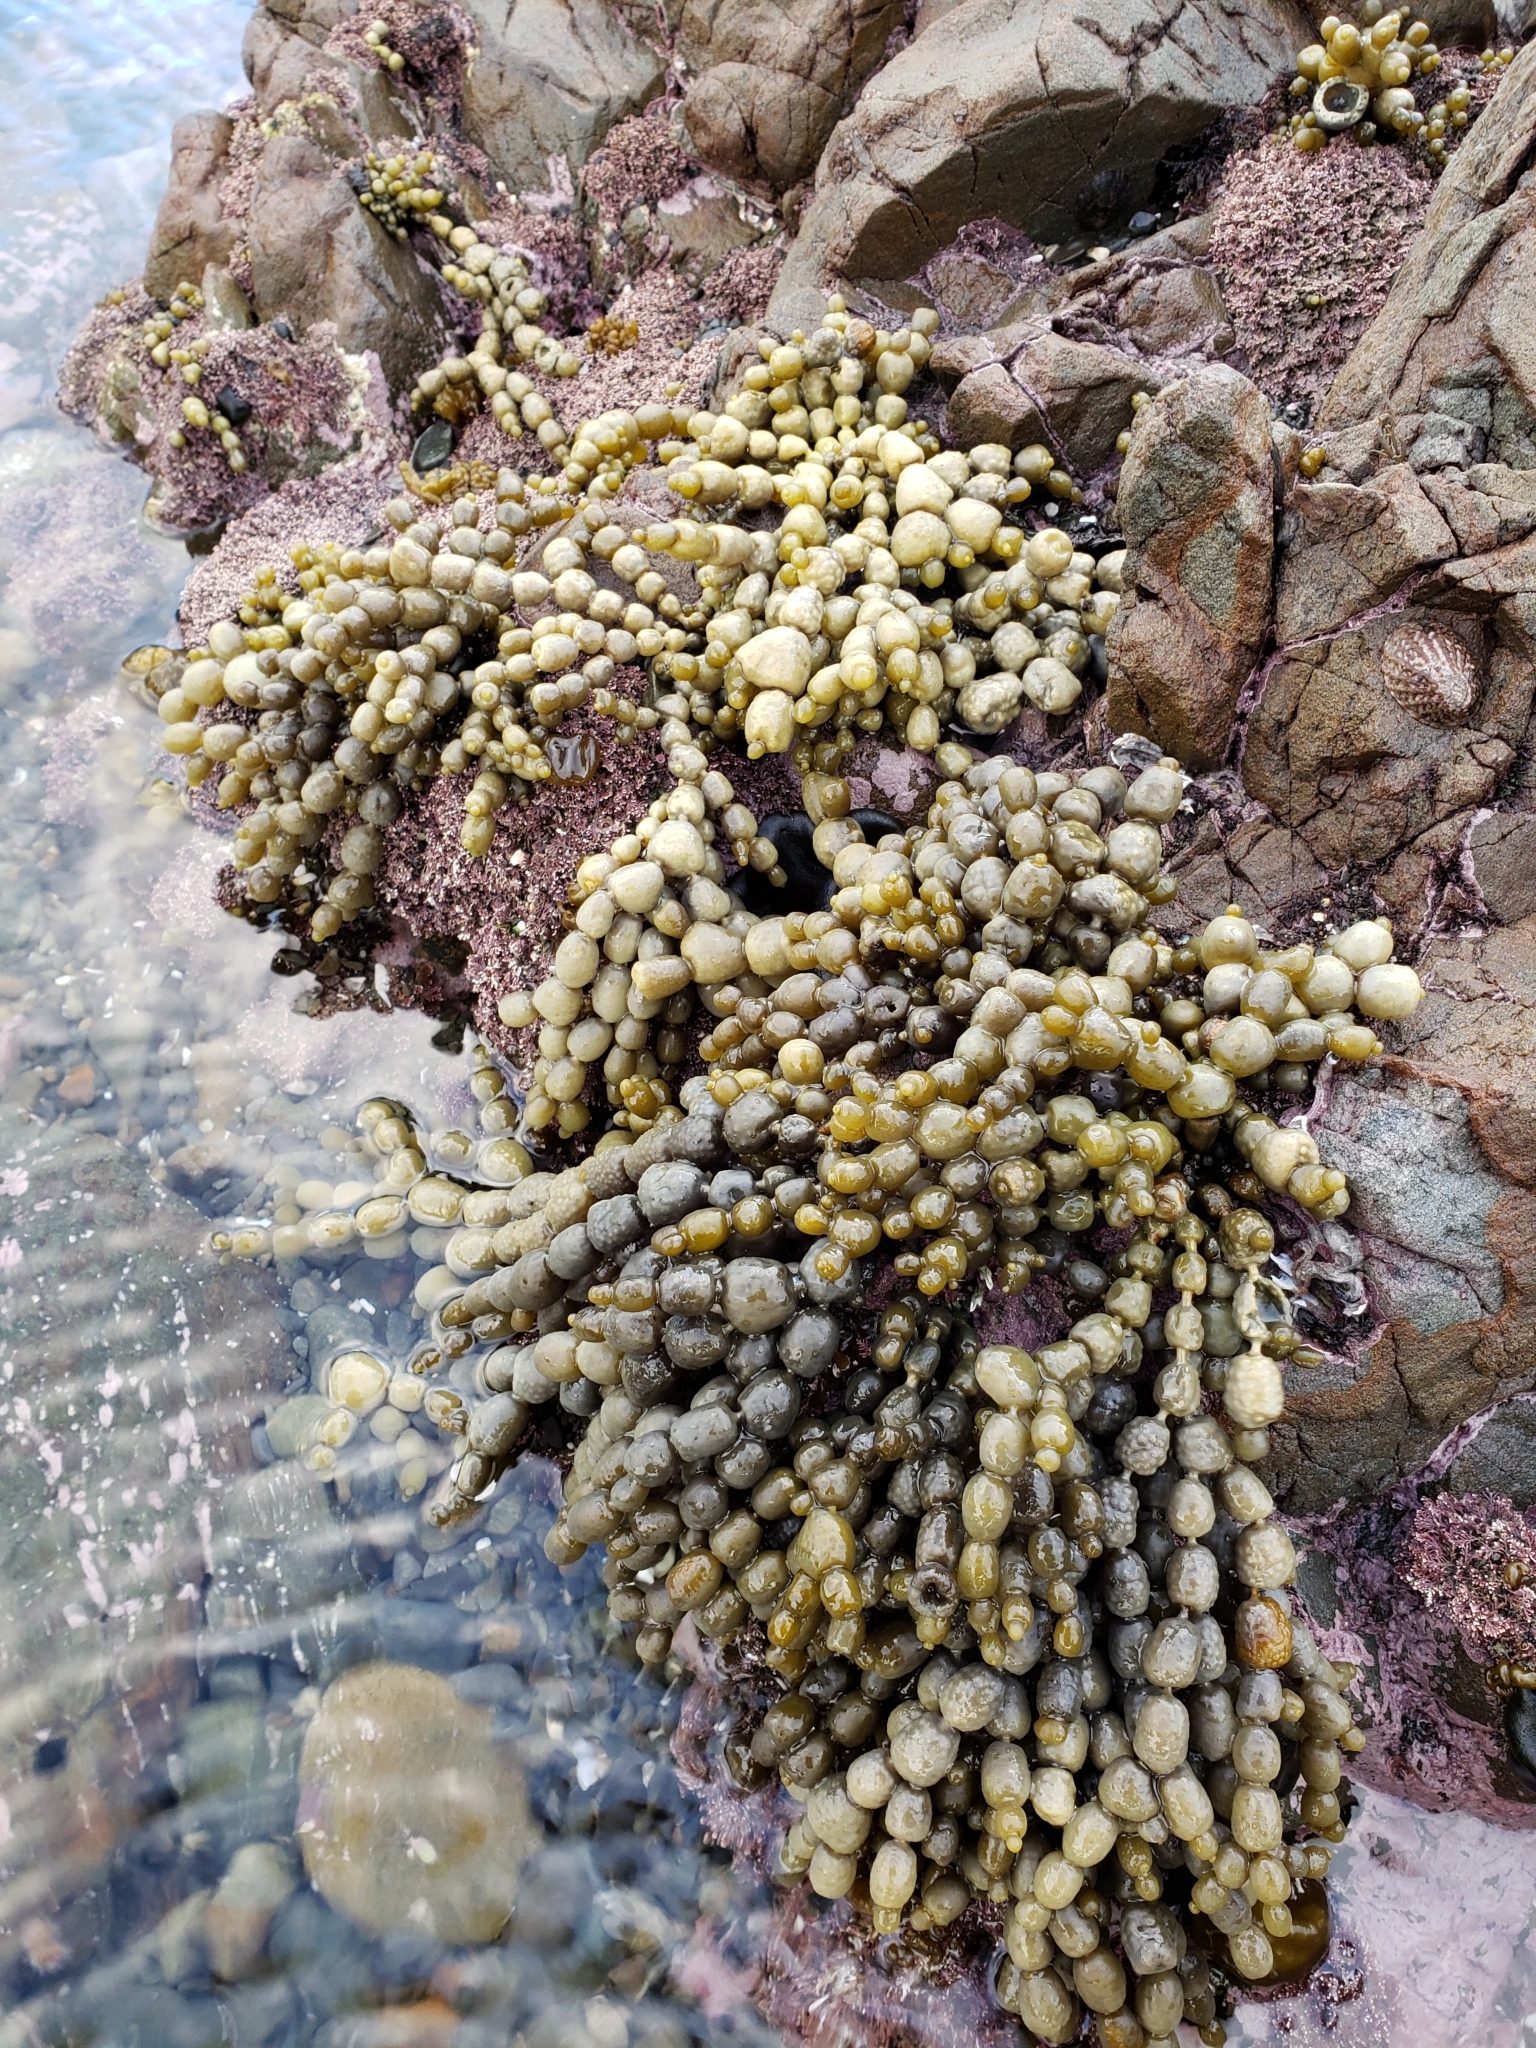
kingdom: Chromista
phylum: Ochrophyta
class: Phaeophyceae
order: Fucales
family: Hormosiraceae
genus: Hormosira
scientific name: Hormosira banksii
